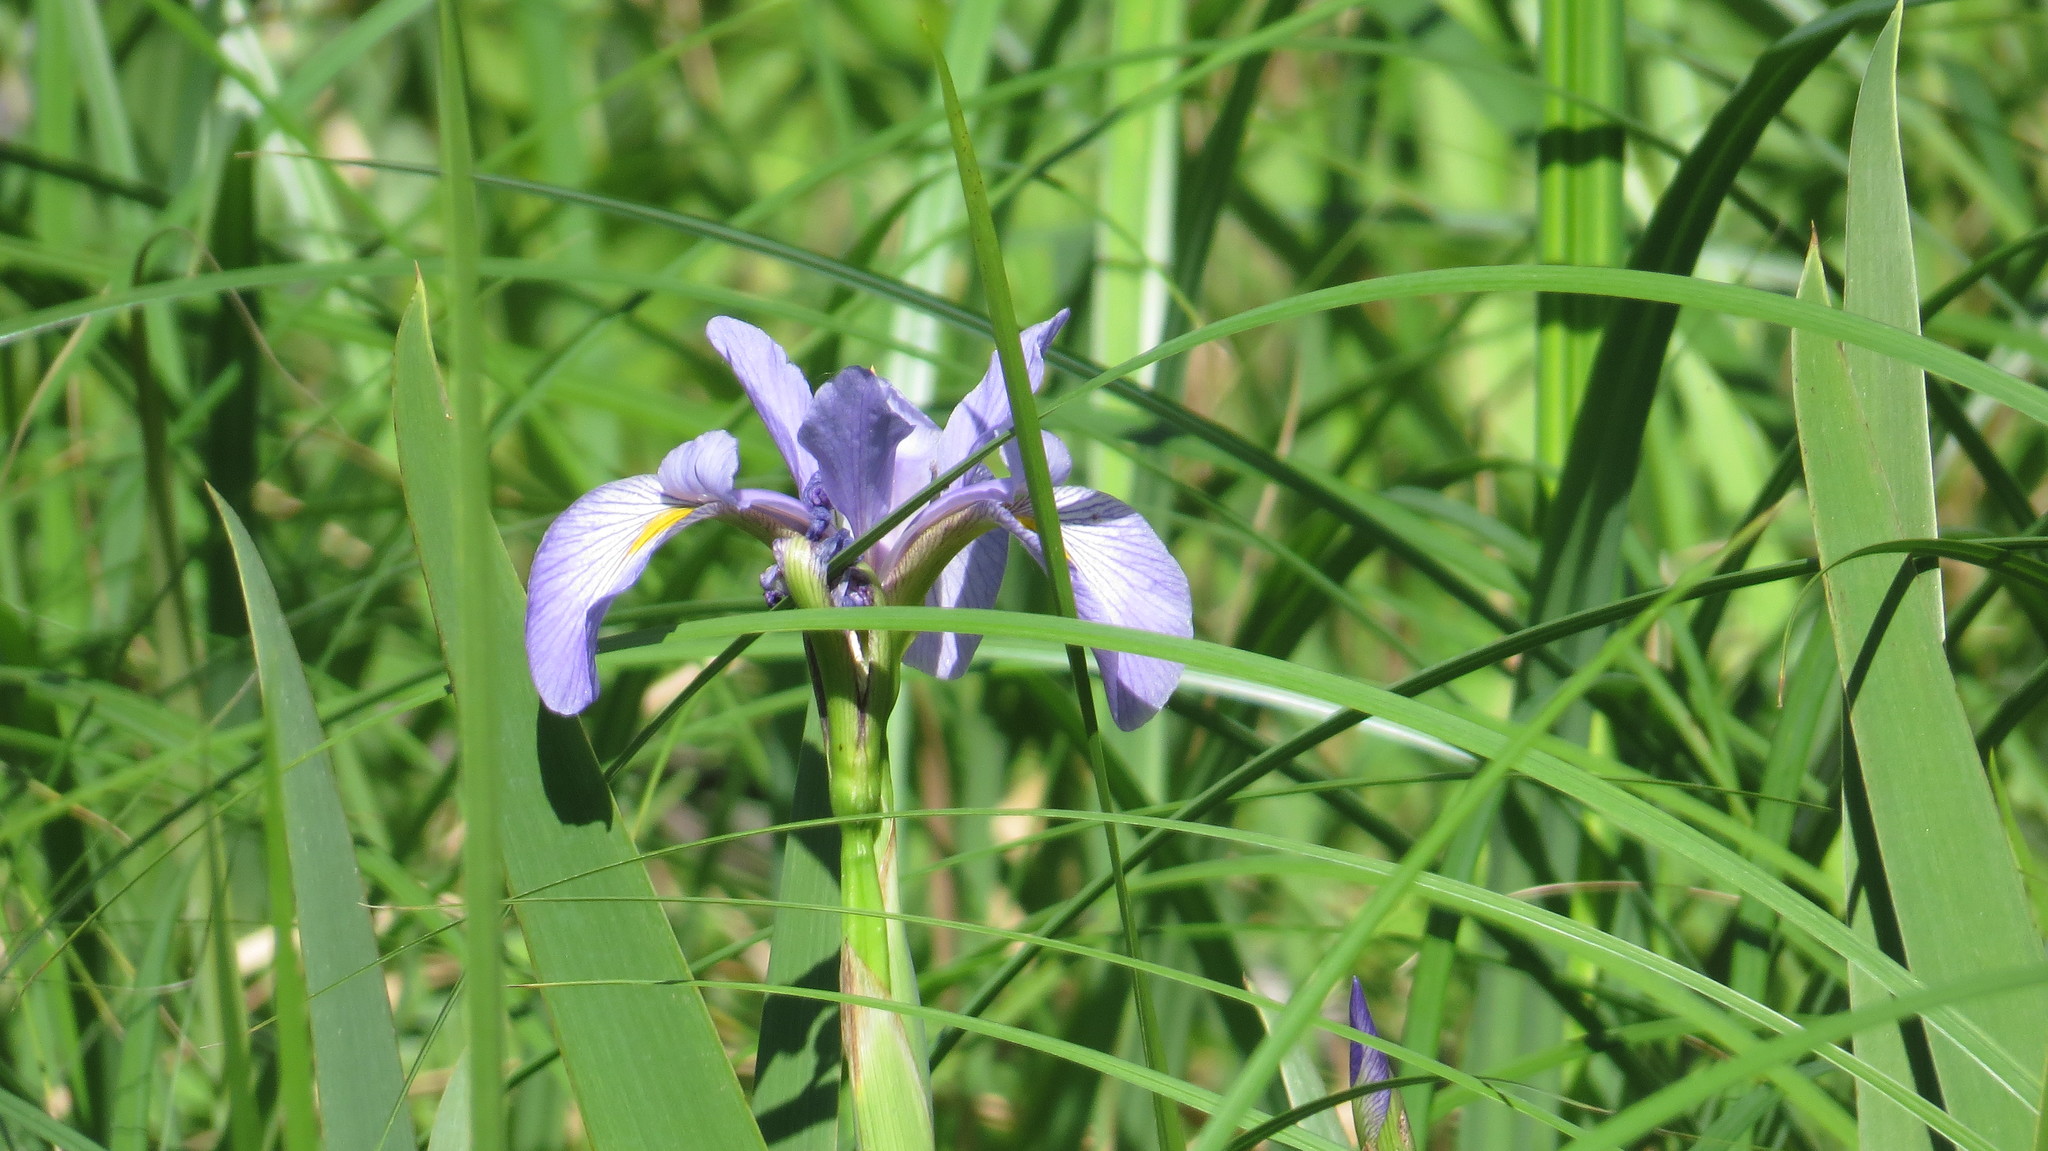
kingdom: Plantae
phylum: Tracheophyta
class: Liliopsida
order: Asparagales
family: Iridaceae
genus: Iris
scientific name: Iris virginica
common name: Southern blue flag
